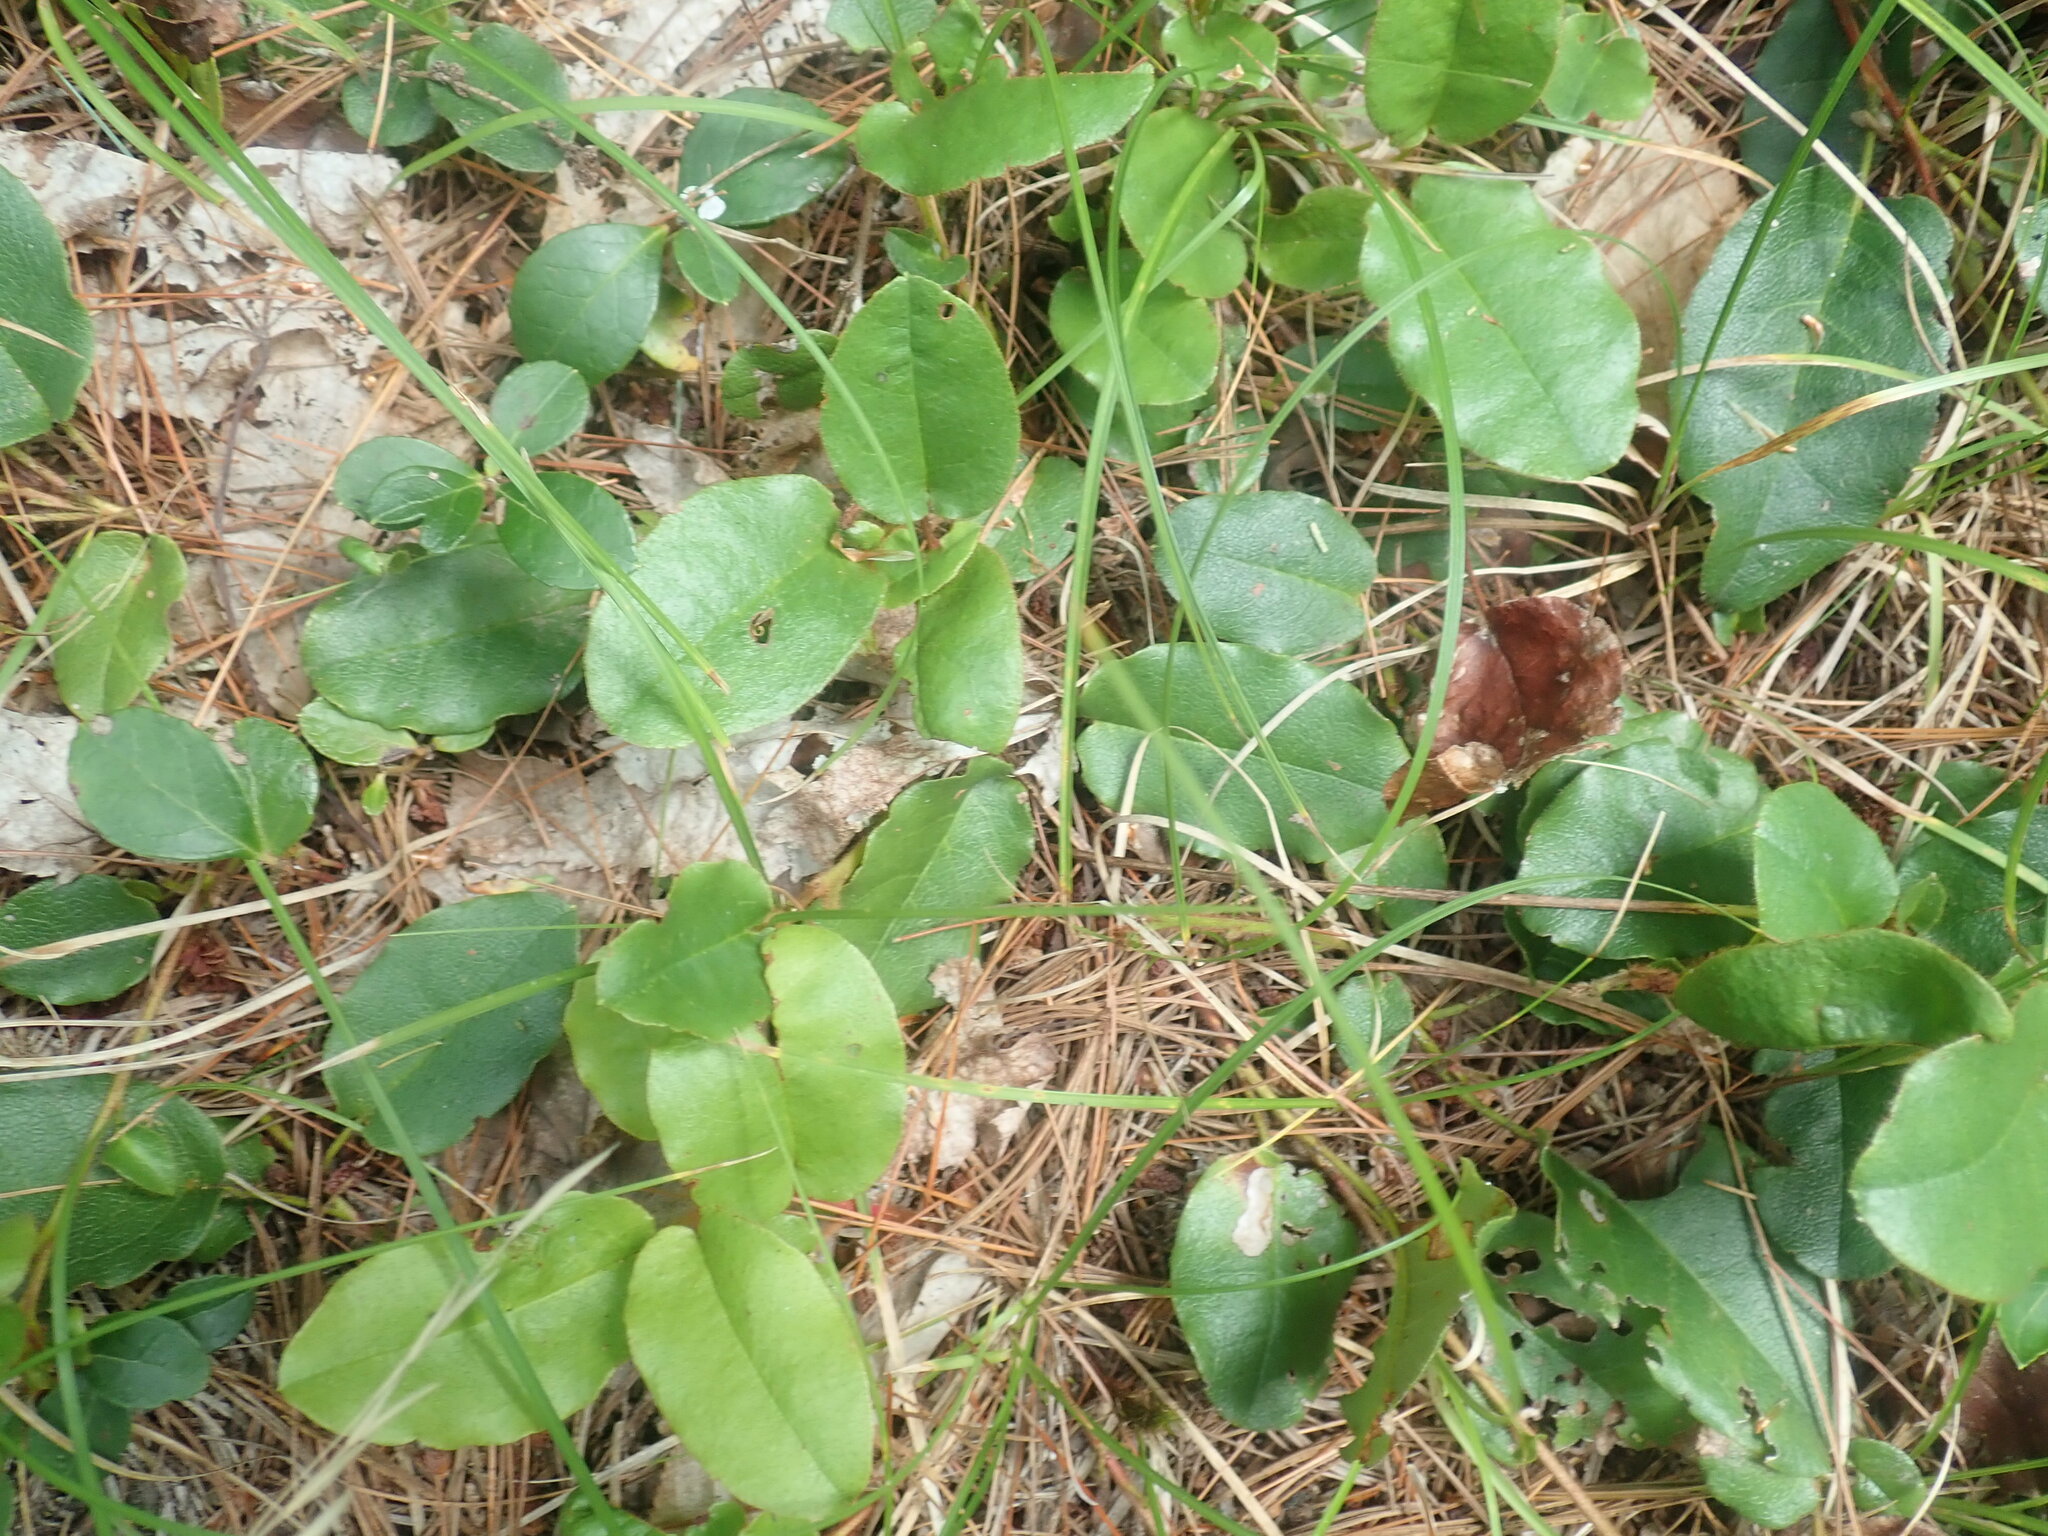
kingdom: Plantae
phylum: Tracheophyta
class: Magnoliopsida
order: Ericales
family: Ericaceae
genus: Epigaea
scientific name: Epigaea repens
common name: Gravelroot
